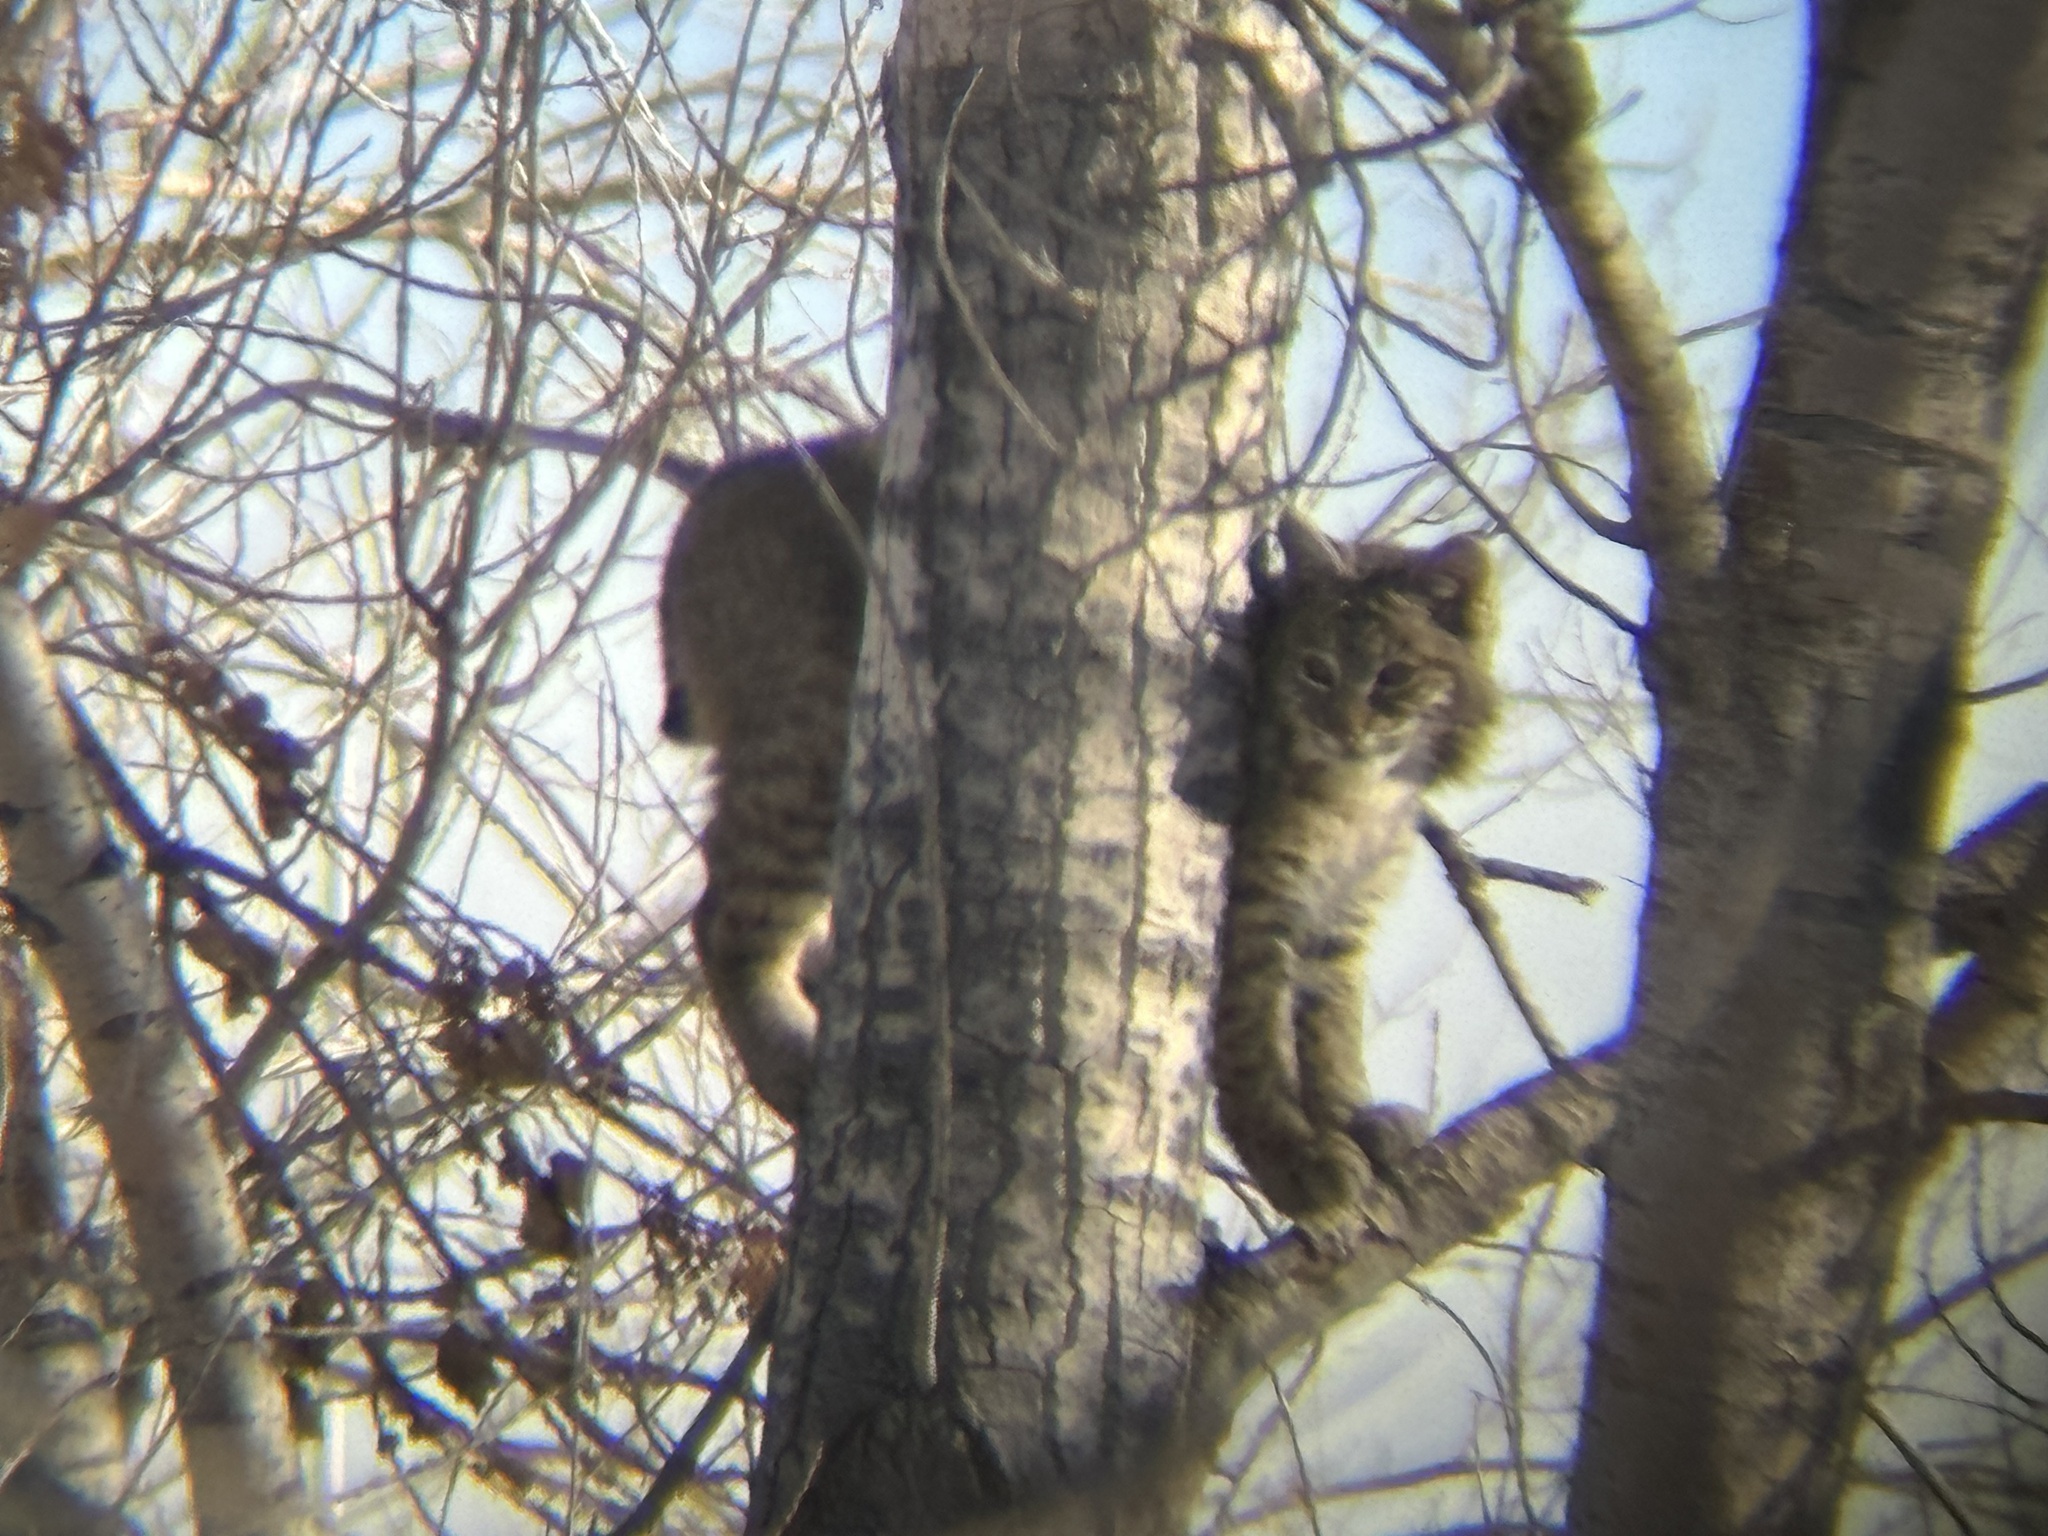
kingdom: Animalia
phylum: Chordata
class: Mammalia
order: Carnivora
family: Felidae
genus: Lynx
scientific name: Lynx rufus
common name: Bobcat
